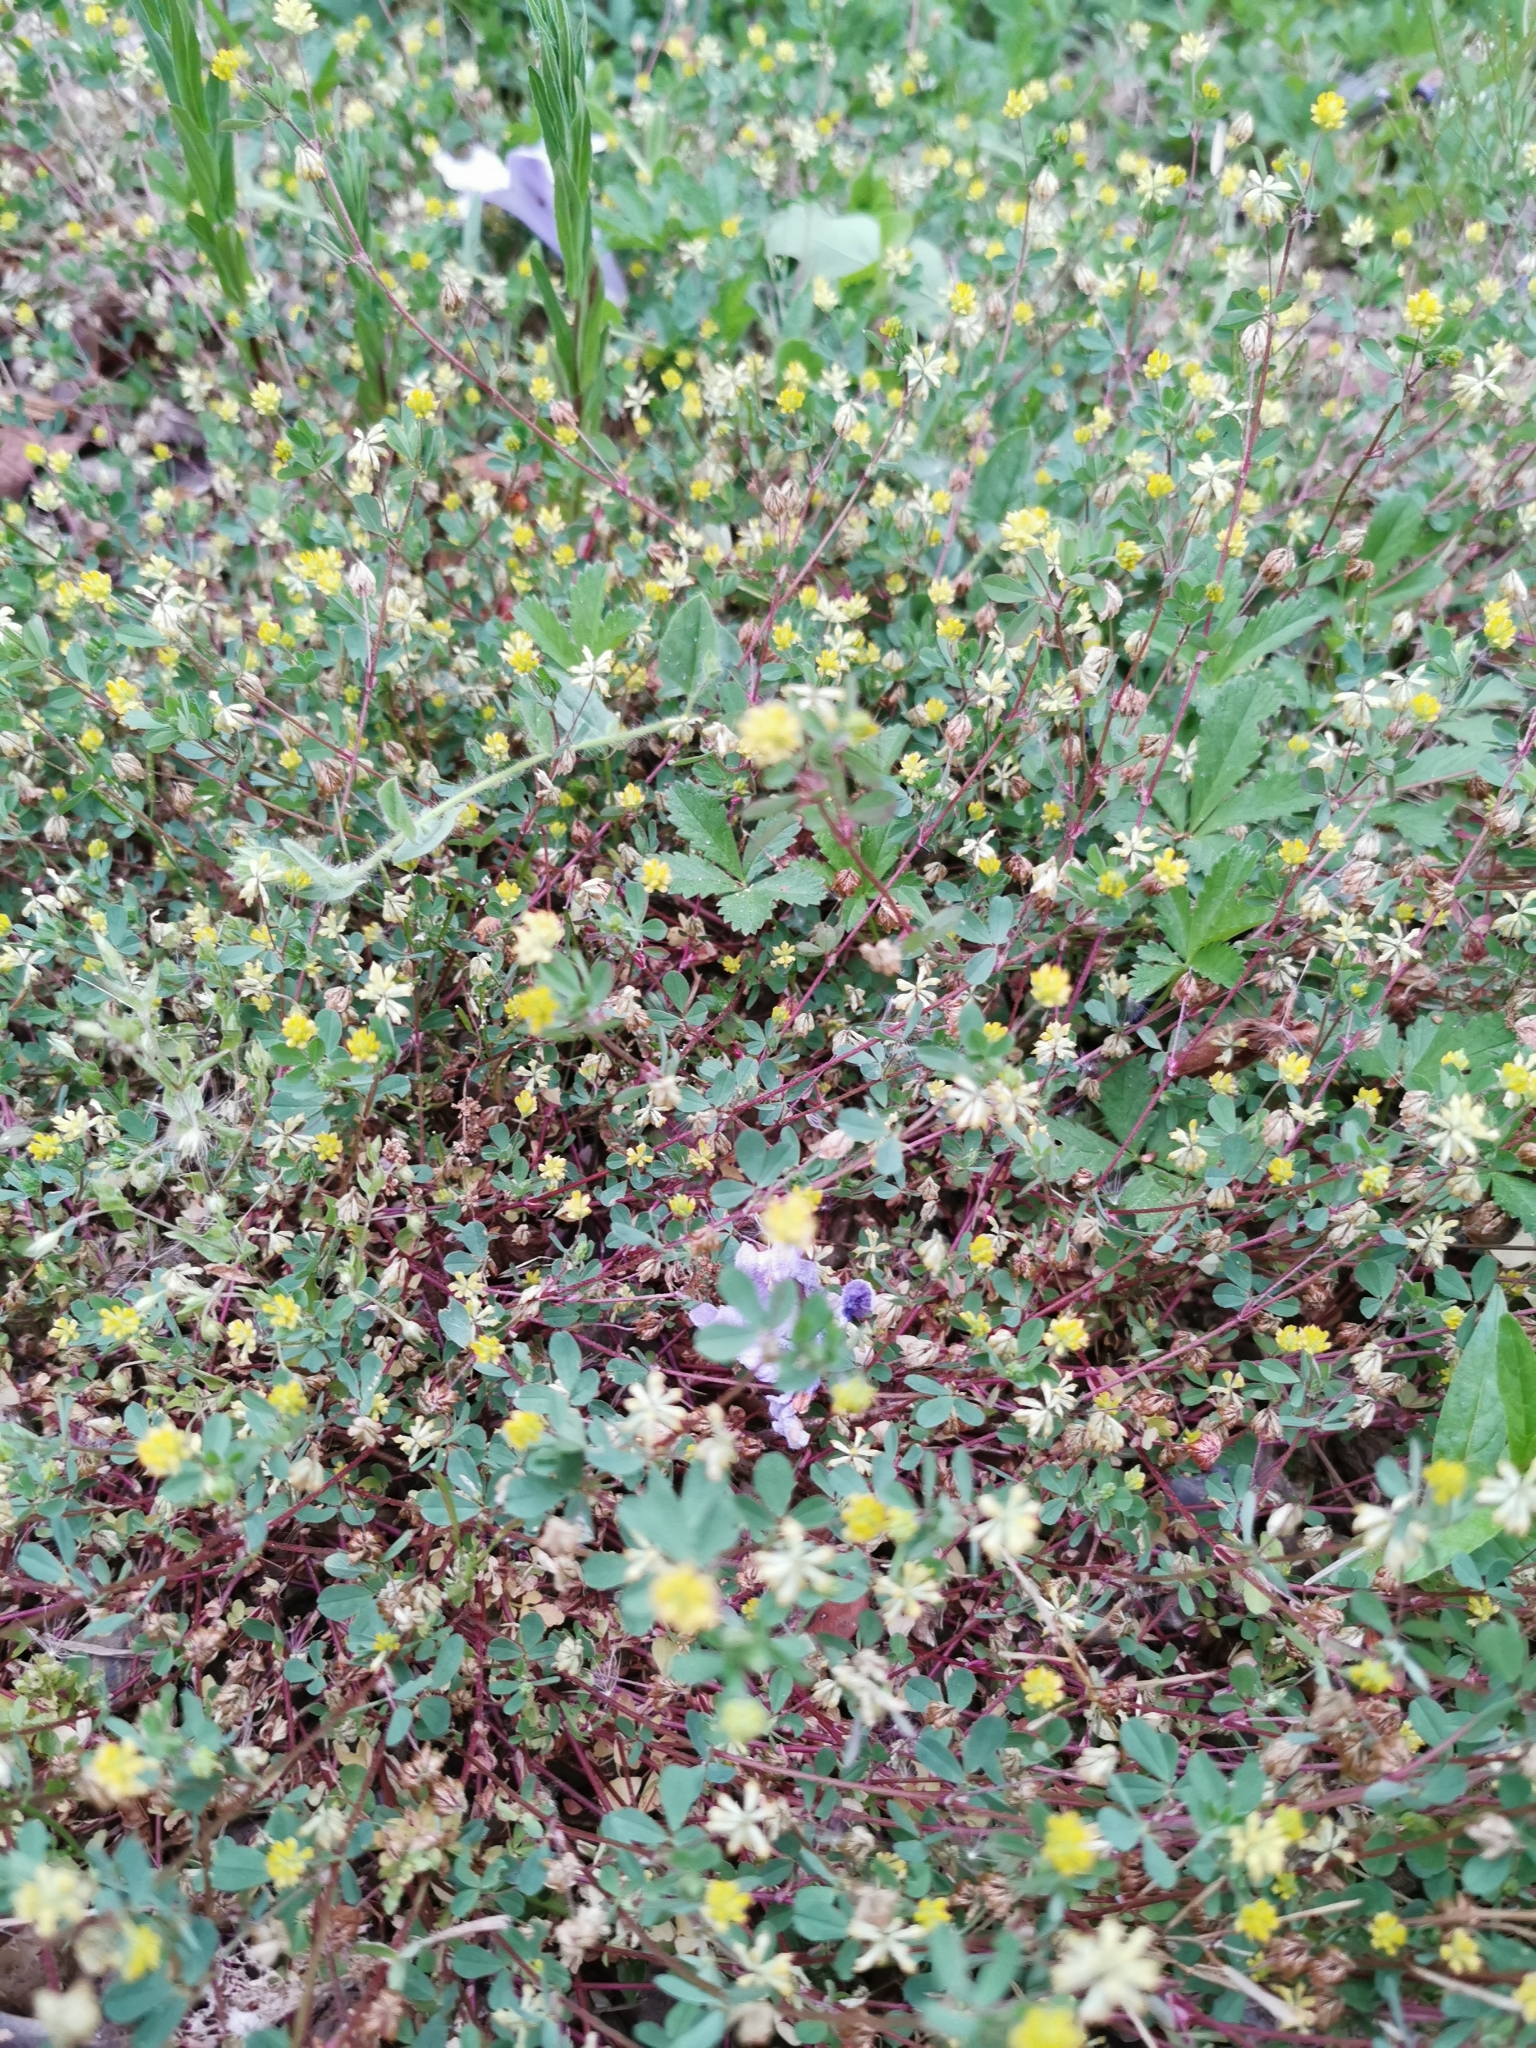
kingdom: Plantae
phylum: Tracheophyta
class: Magnoliopsida
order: Fabales
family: Fabaceae
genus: Trifolium
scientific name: Trifolium dubium
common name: Suckling clover
